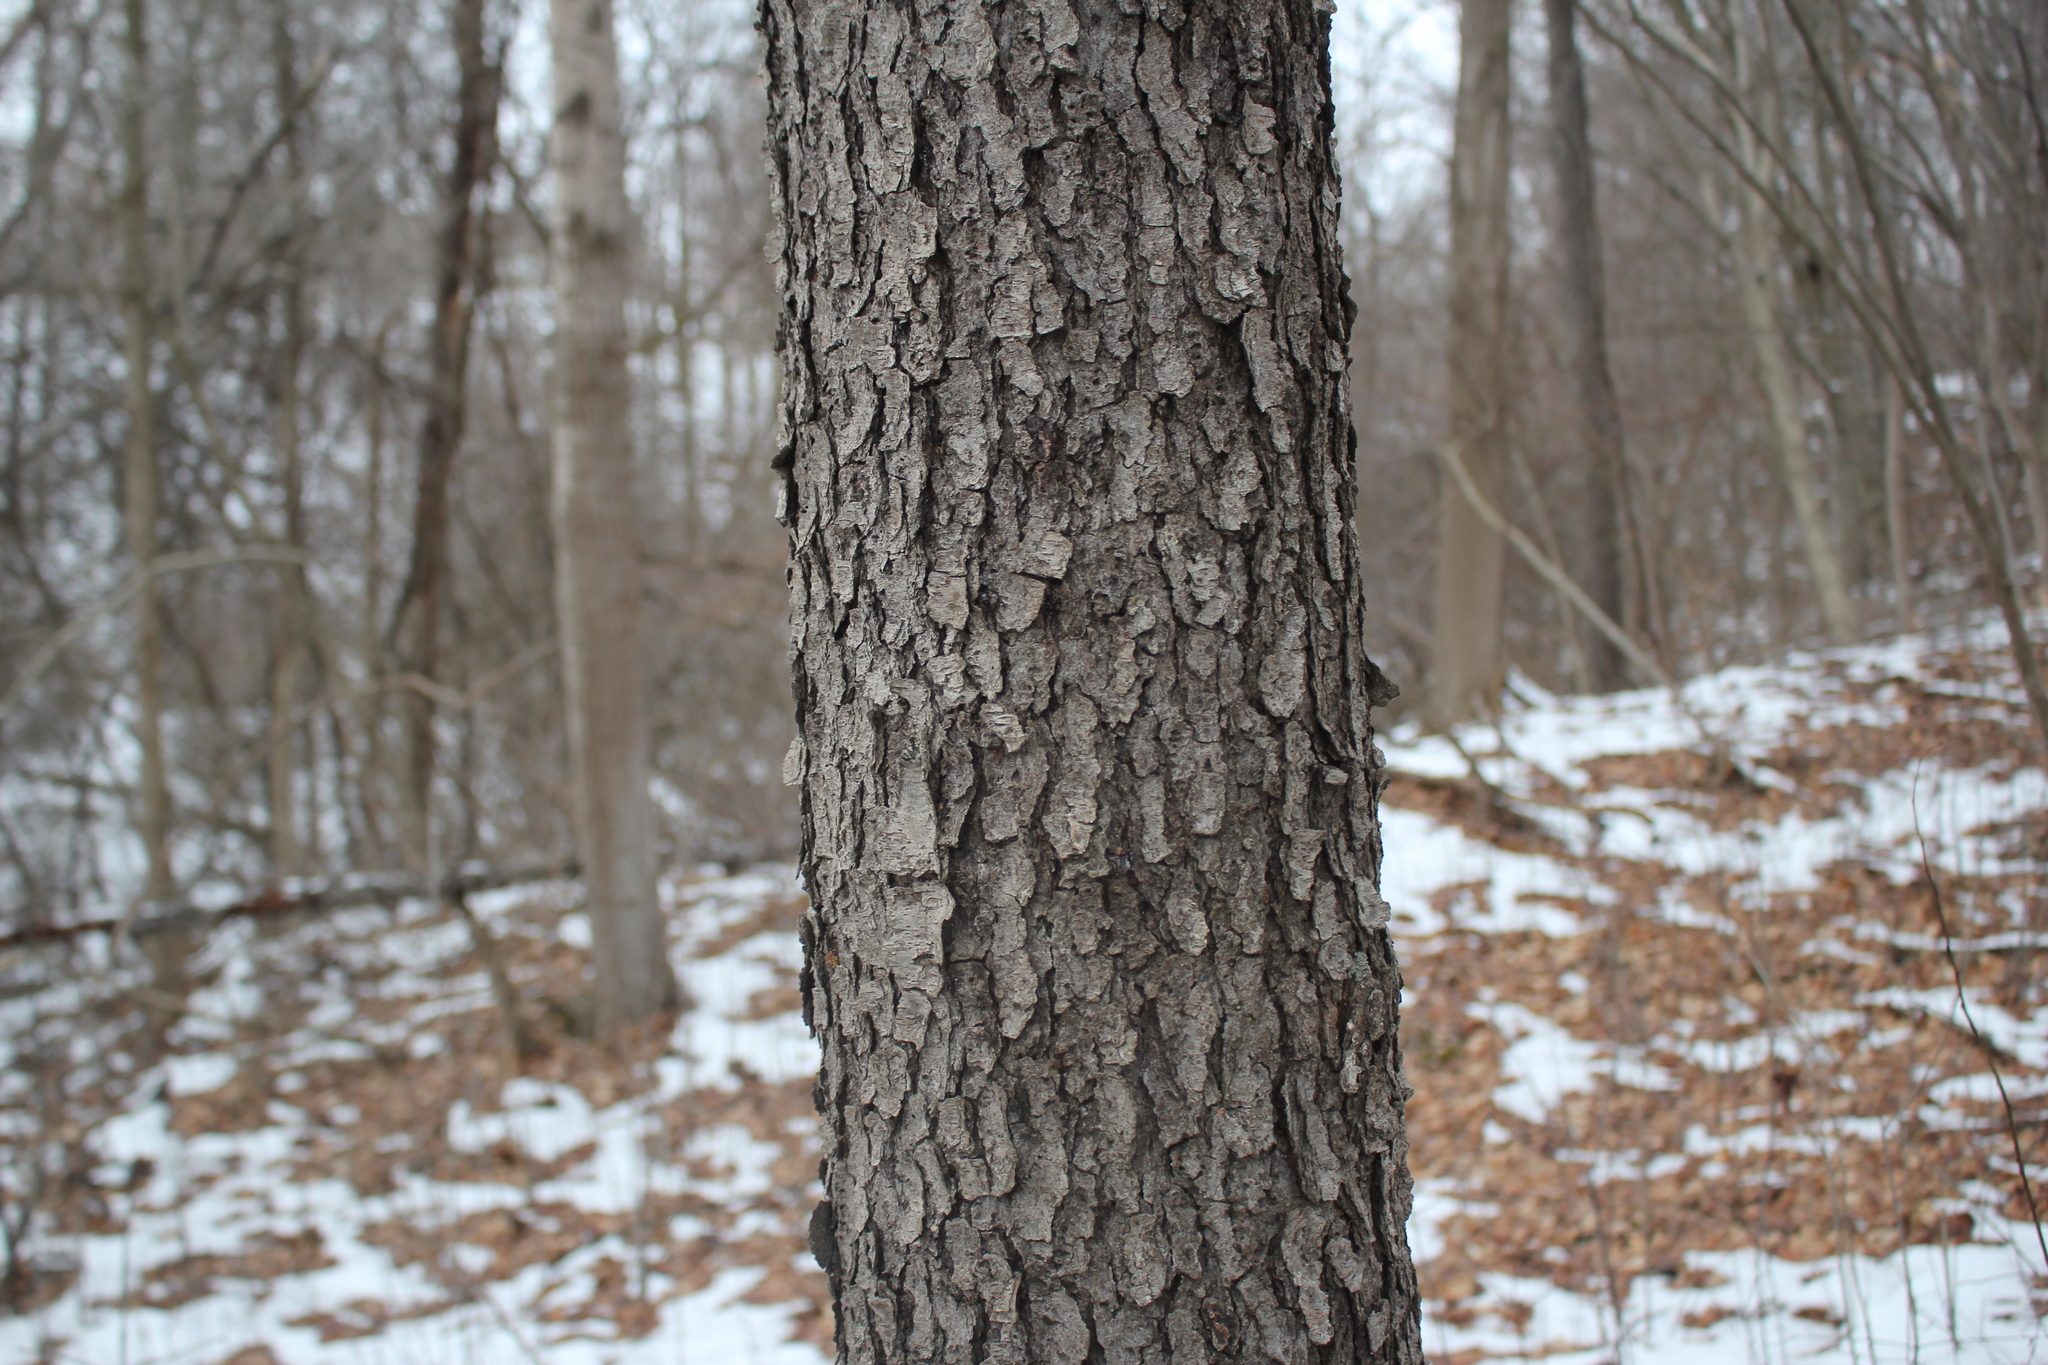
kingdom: Plantae
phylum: Tracheophyta
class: Magnoliopsida
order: Rosales
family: Rosaceae
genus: Prunus
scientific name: Prunus serotina
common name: Black cherry
